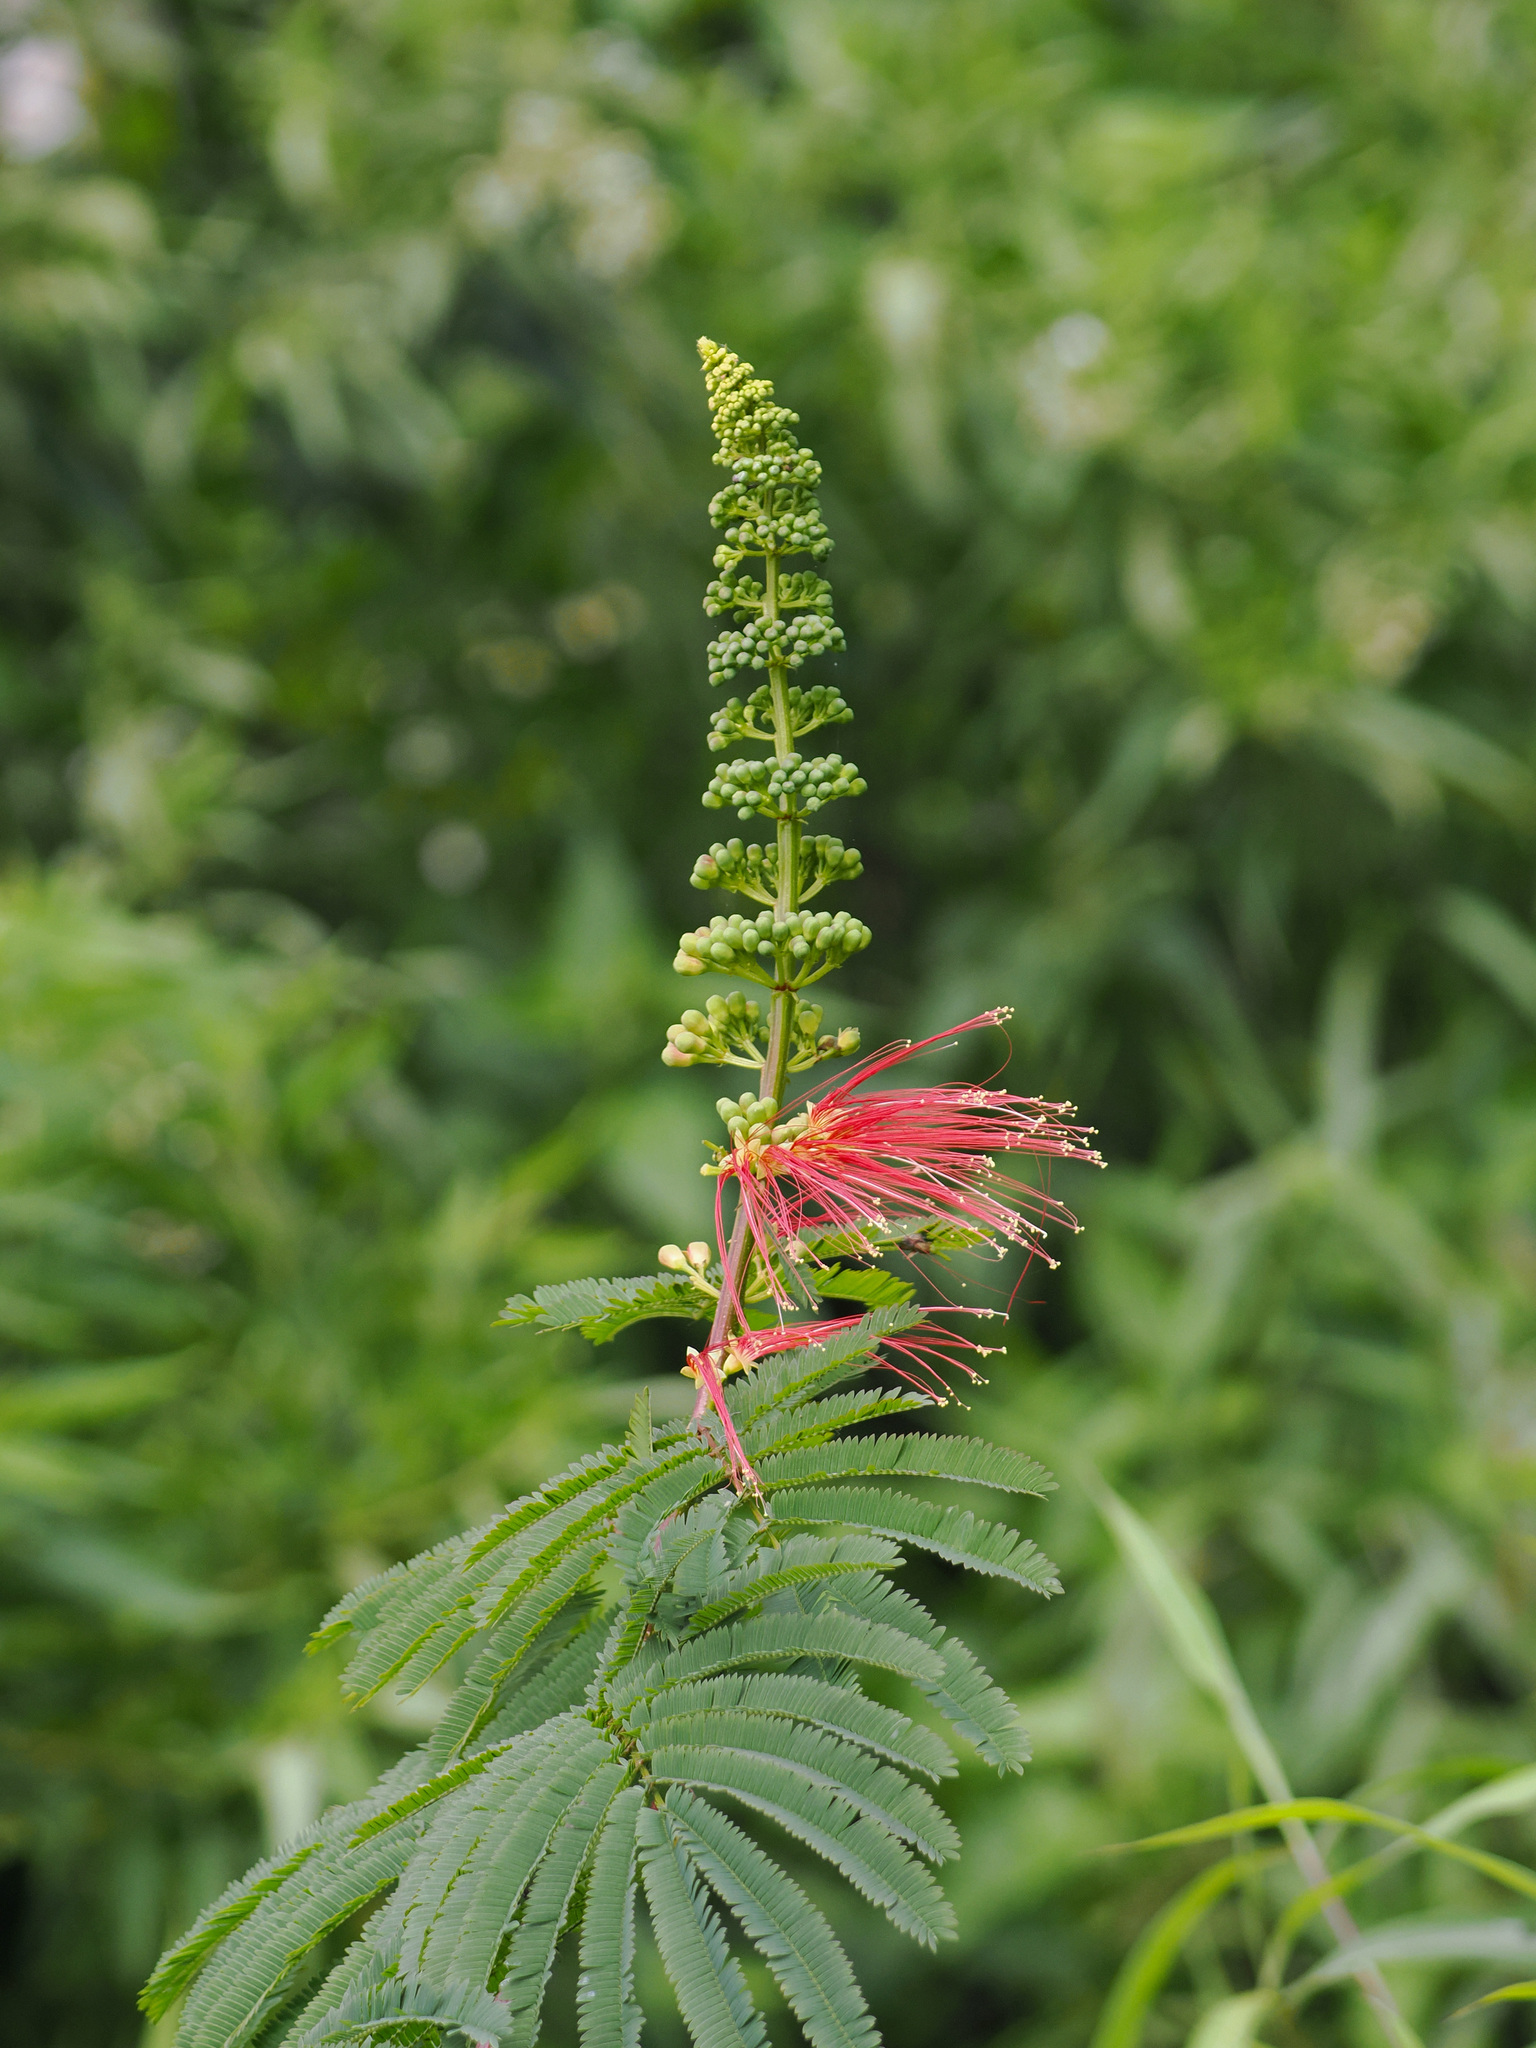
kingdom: Plantae
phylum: Tracheophyta
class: Magnoliopsida
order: Fabales
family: Fabaceae
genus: Calliandra
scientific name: Calliandra houstoniana
